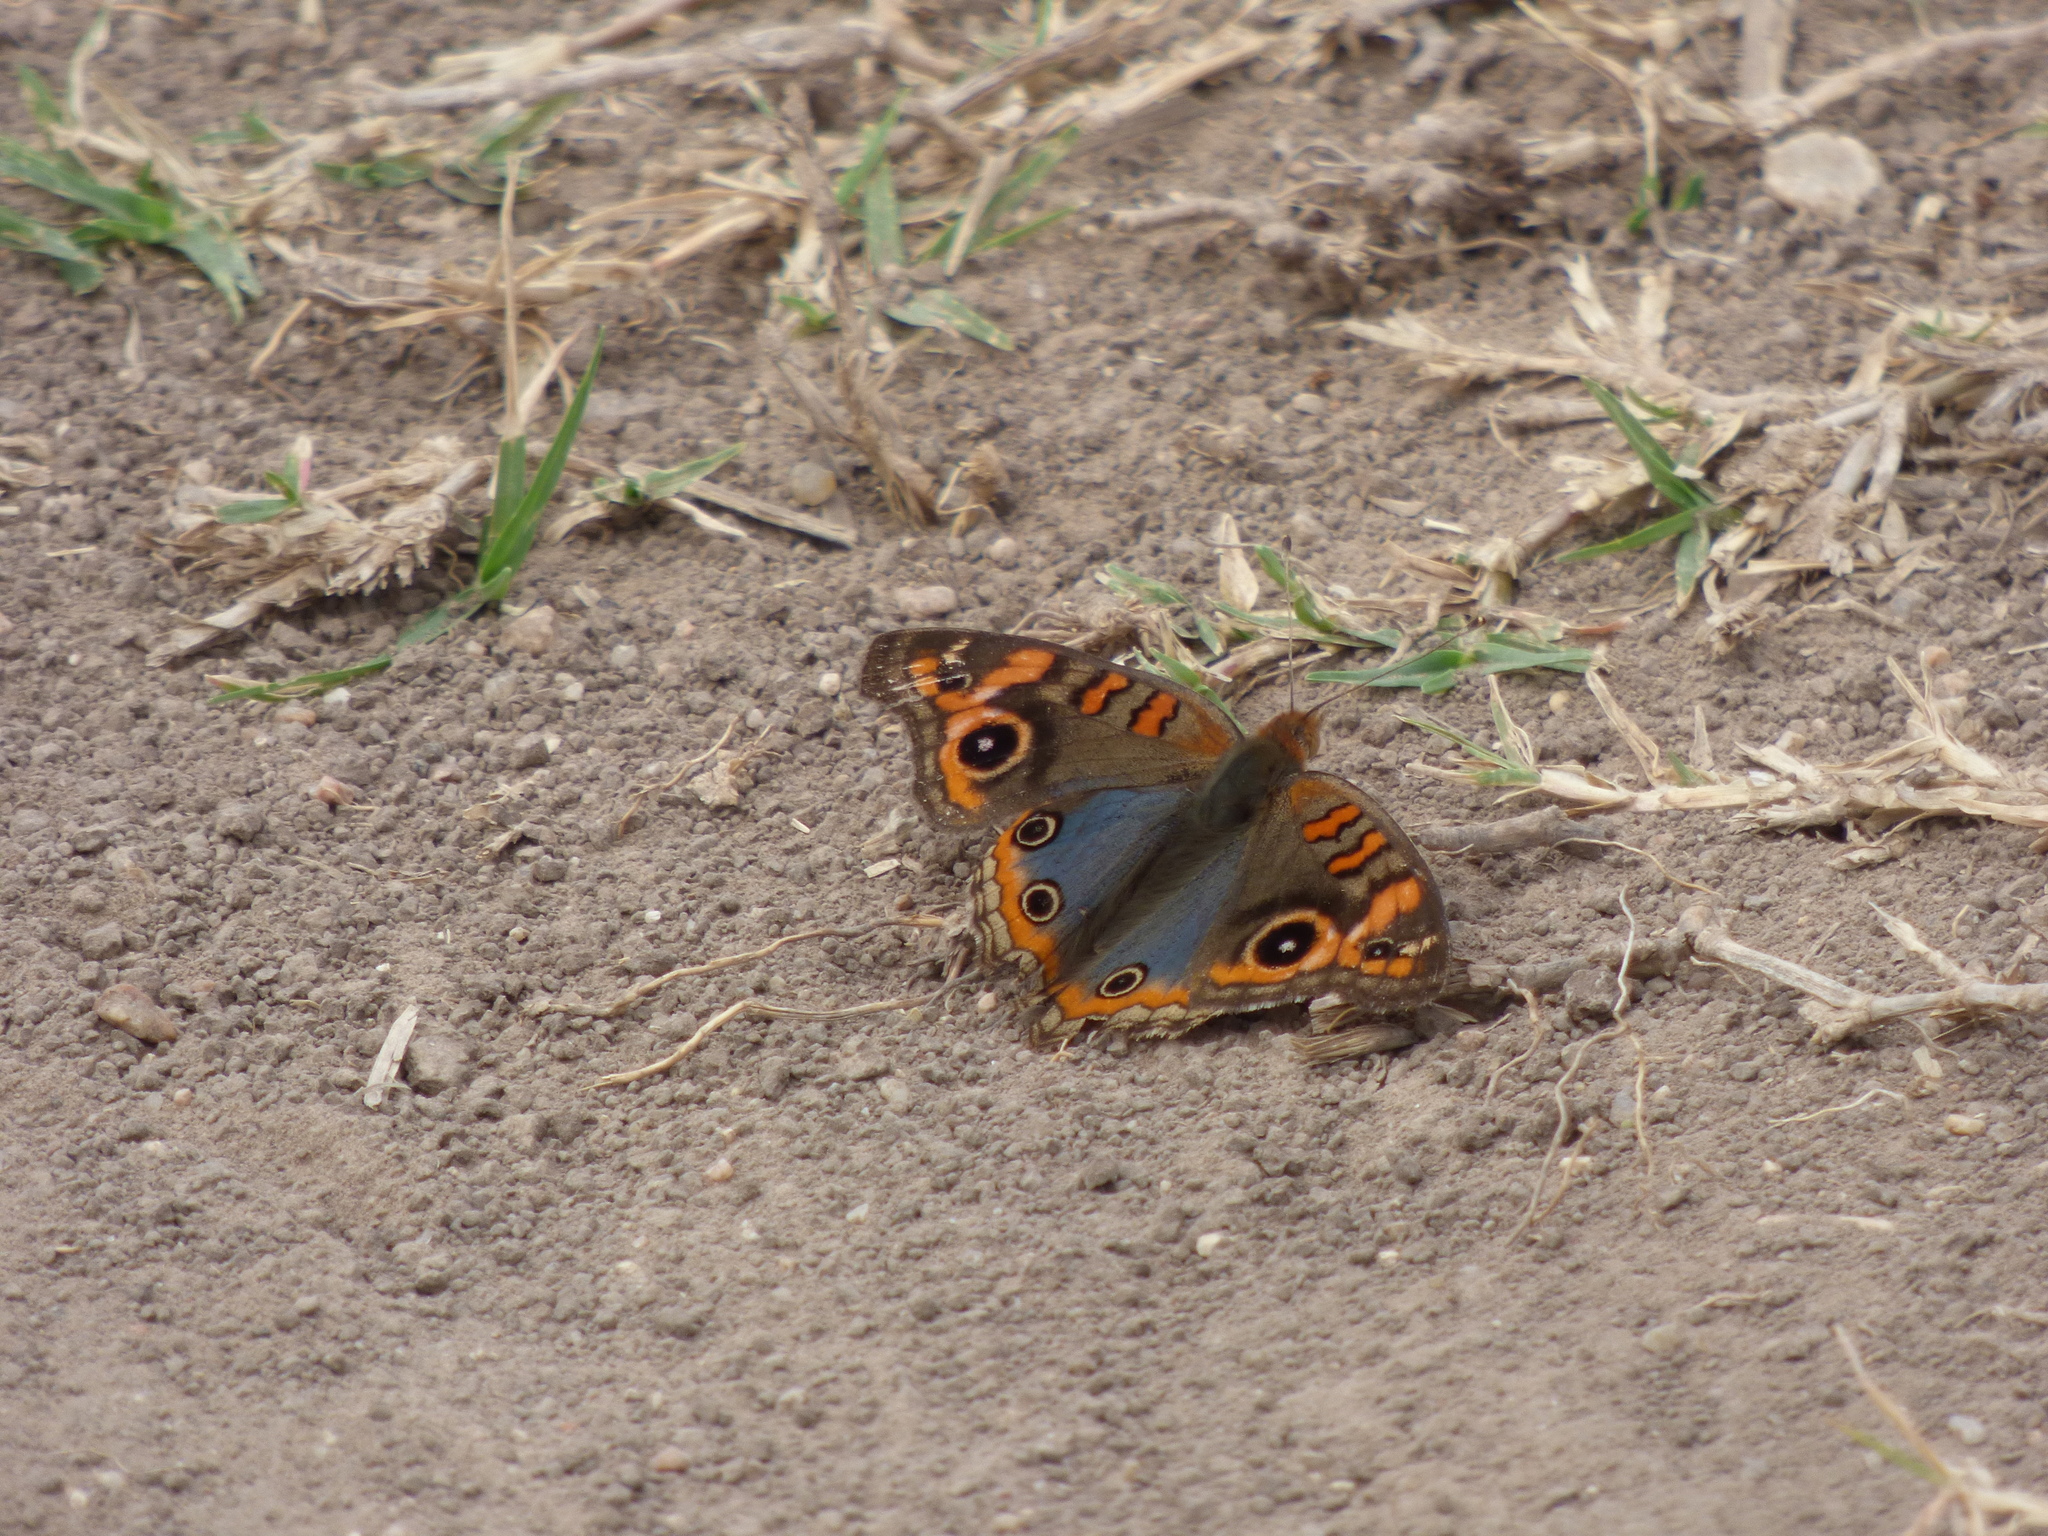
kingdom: Animalia
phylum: Arthropoda
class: Insecta
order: Lepidoptera
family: Nymphalidae
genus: Junonia
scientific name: Junonia lavinia
